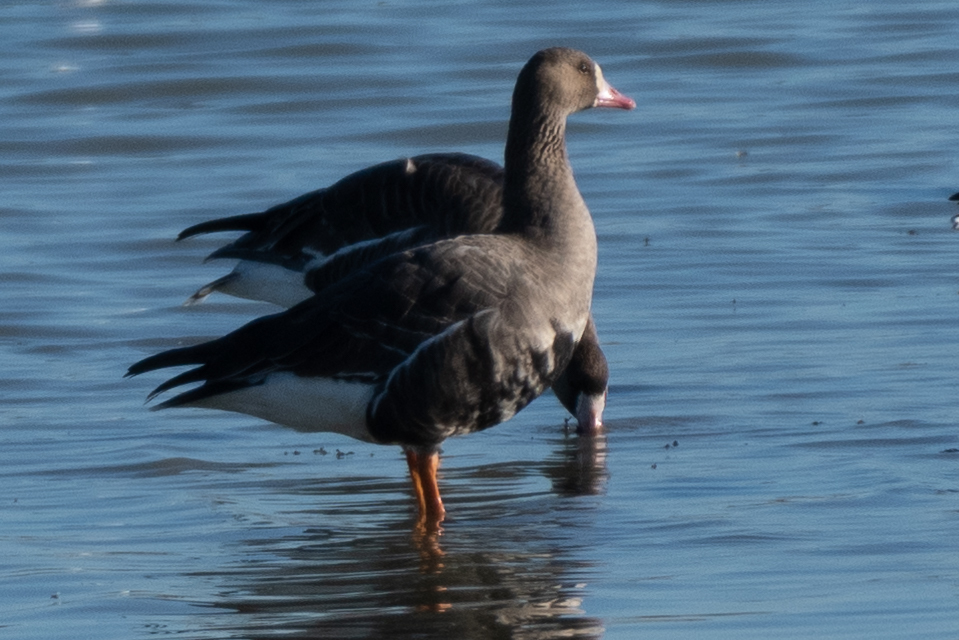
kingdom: Animalia
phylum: Chordata
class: Aves
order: Anseriformes
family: Anatidae
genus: Anser
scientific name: Anser albifrons
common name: Greater white-fronted goose
